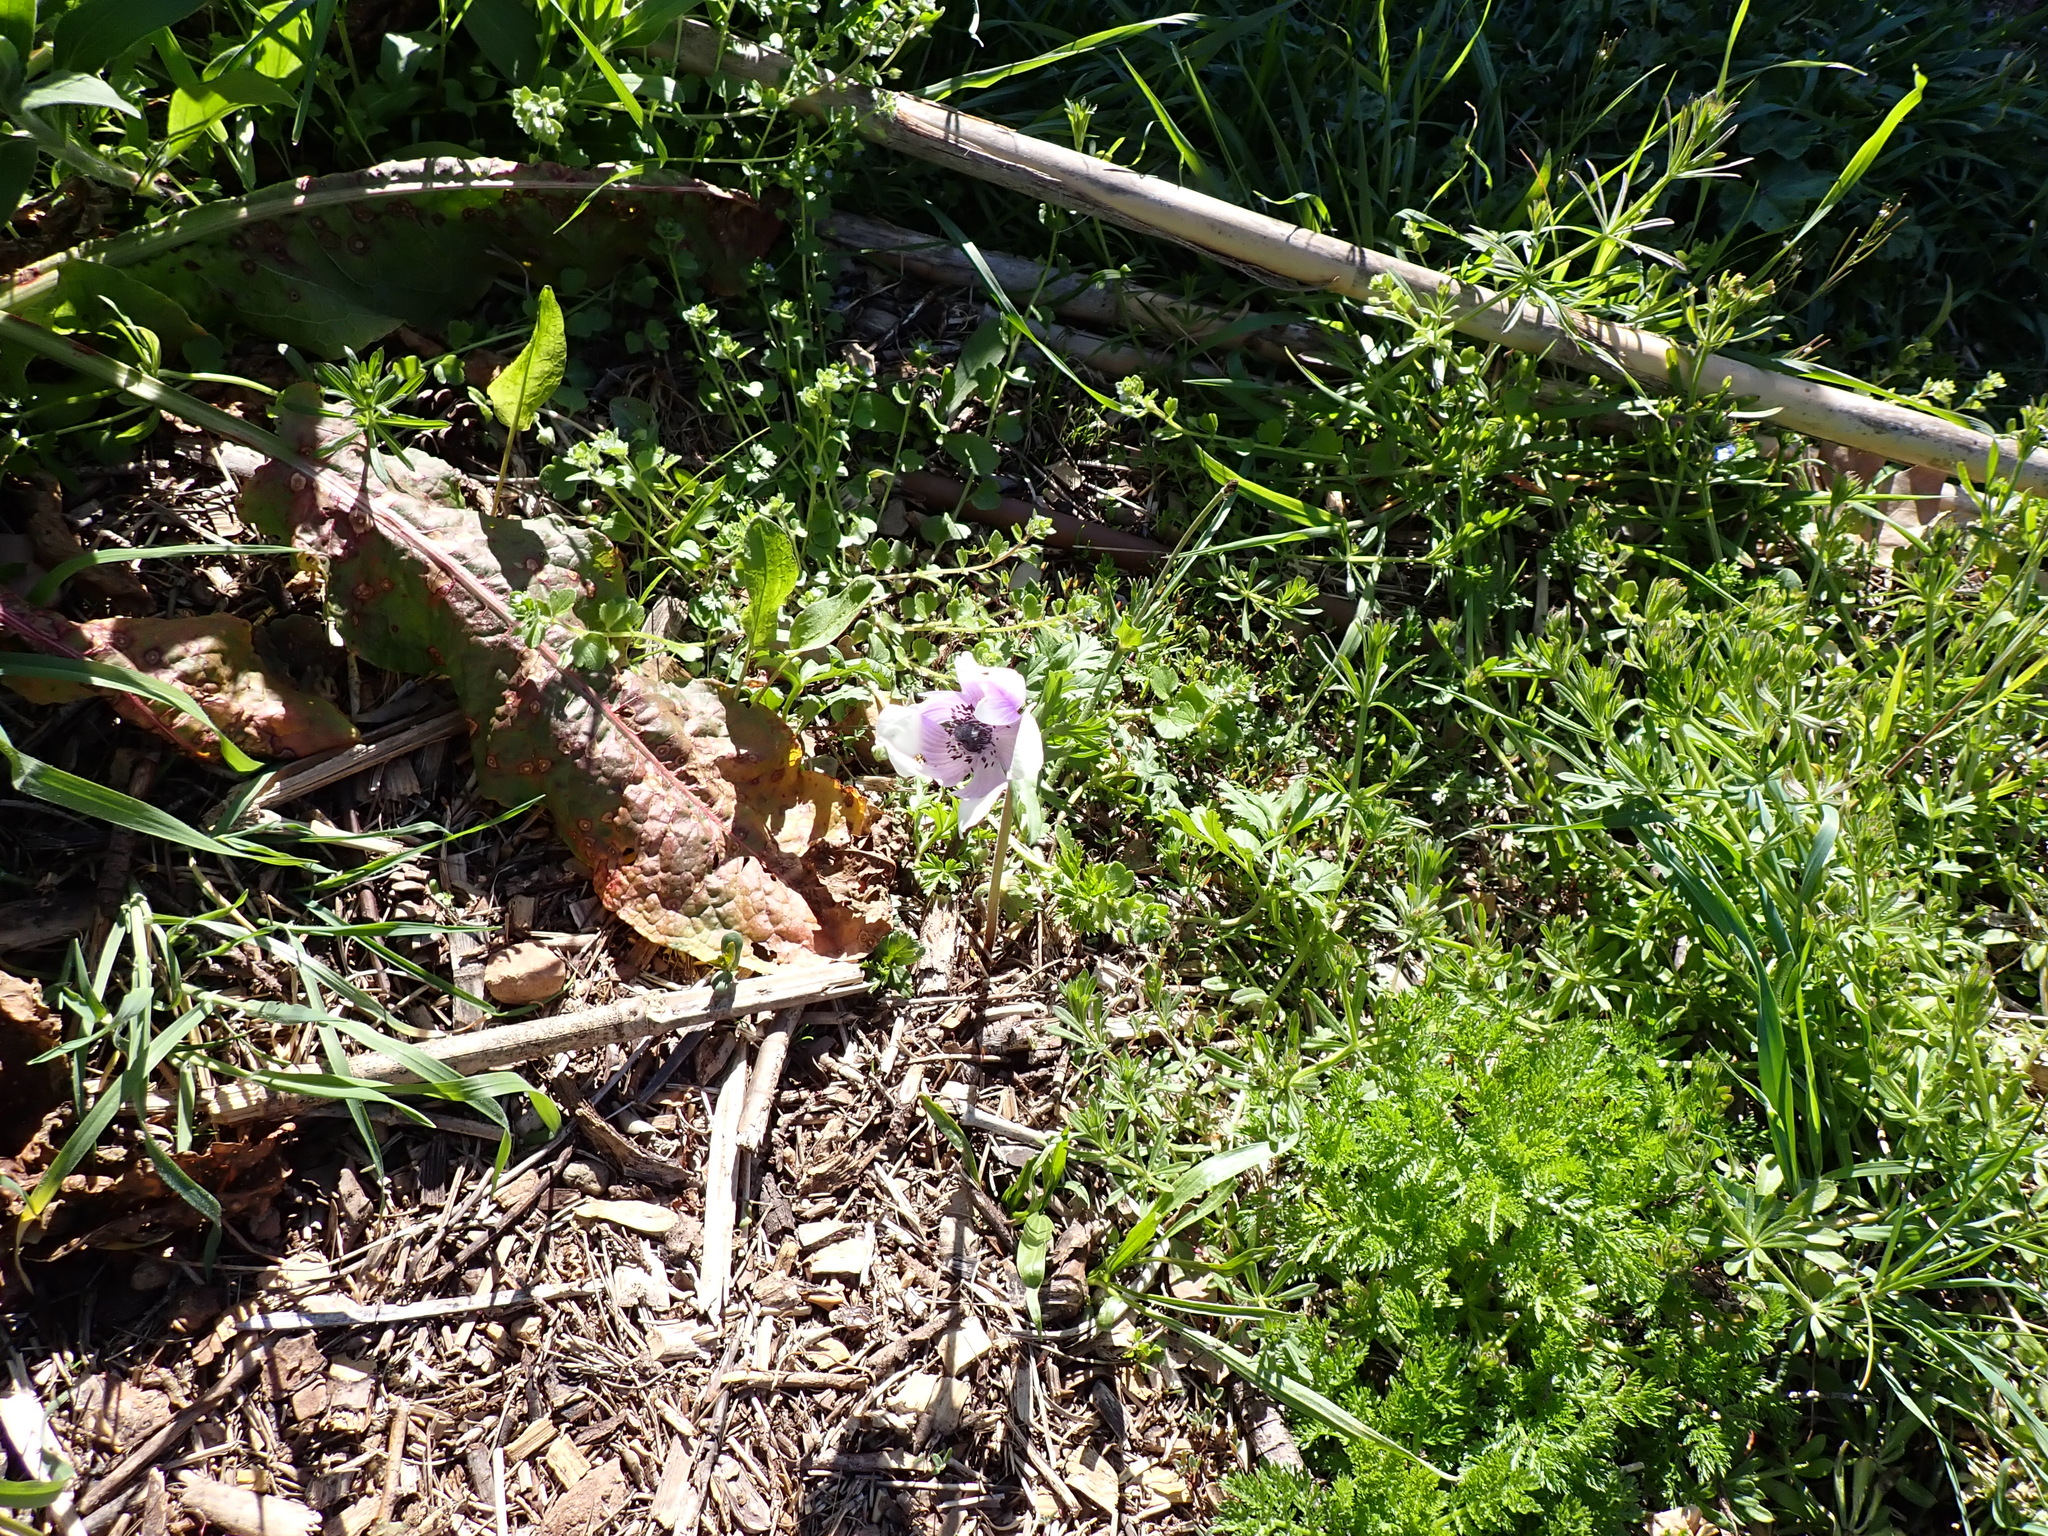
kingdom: Plantae
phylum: Tracheophyta
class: Magnoliopsida
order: Ranunculales
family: Ranunculaceae
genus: Anemone
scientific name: Anemone coronaria
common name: Poppy anemone
